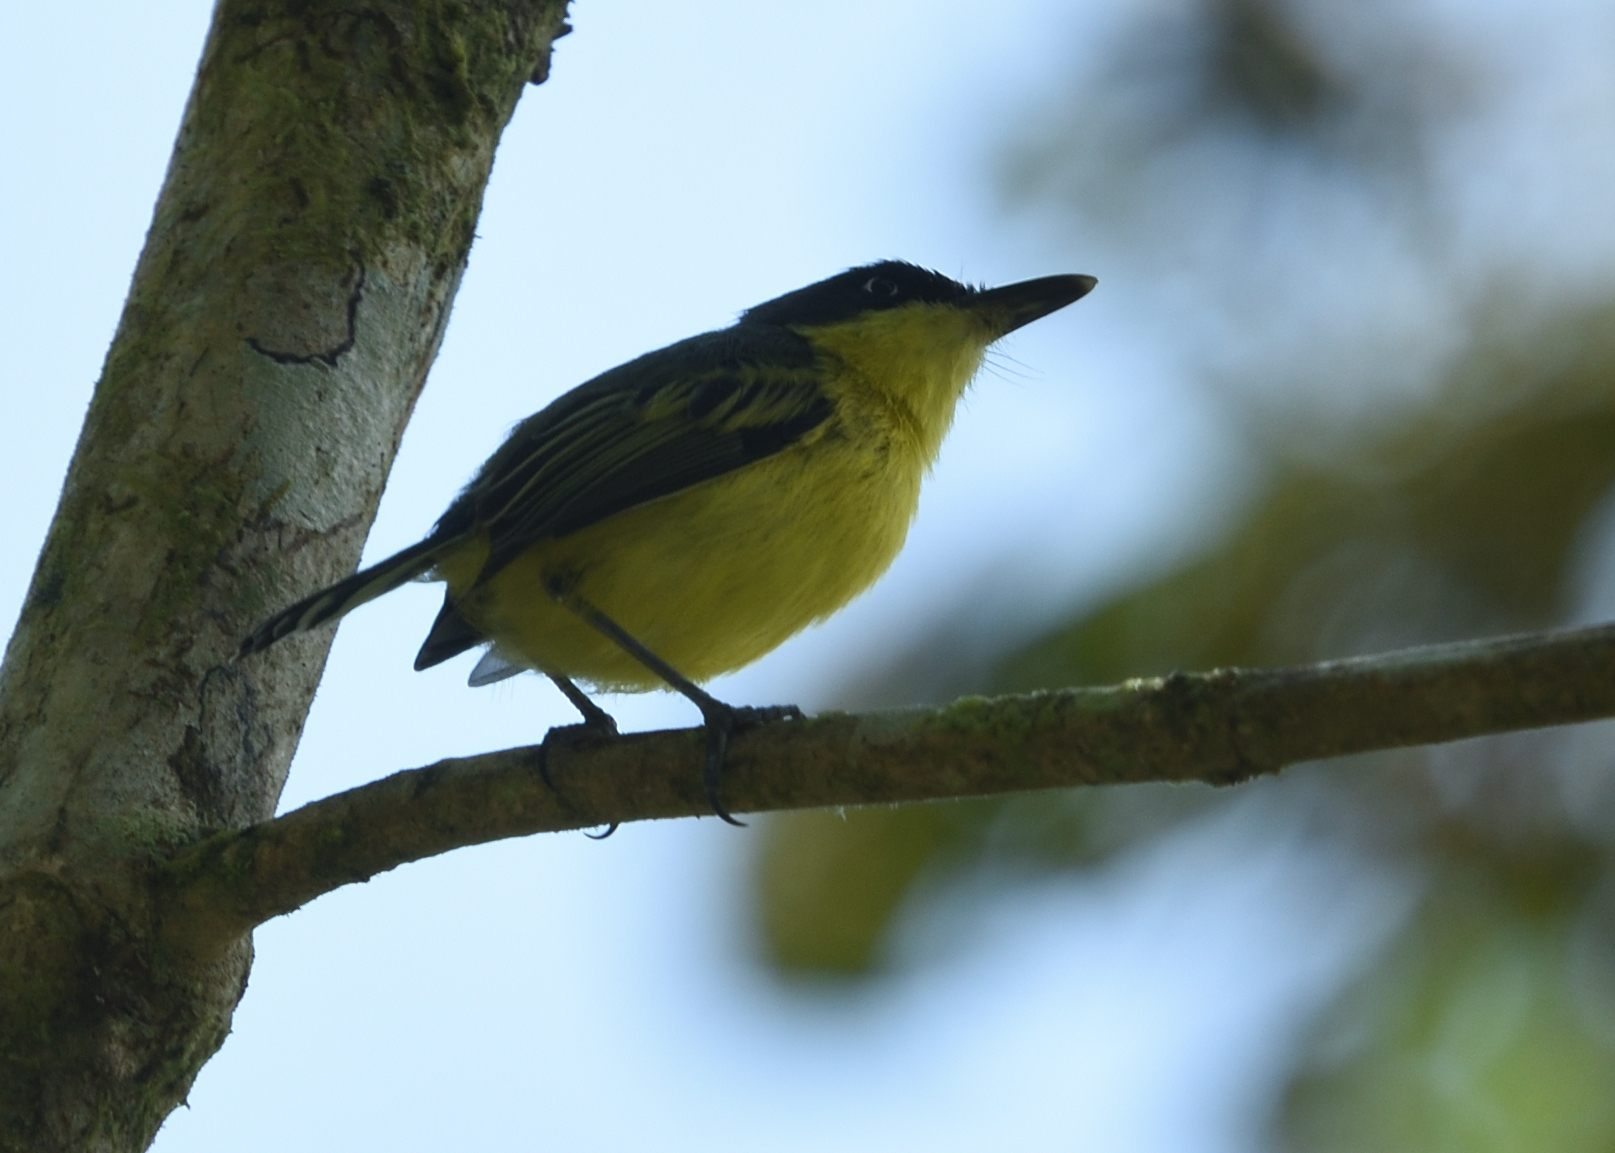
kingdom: Animalia
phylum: Chordata
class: Aves
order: Passeriformes
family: Tyrannidae
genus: Todirostrum
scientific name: Todirostrum cinereum
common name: Common tody-flycatcher
